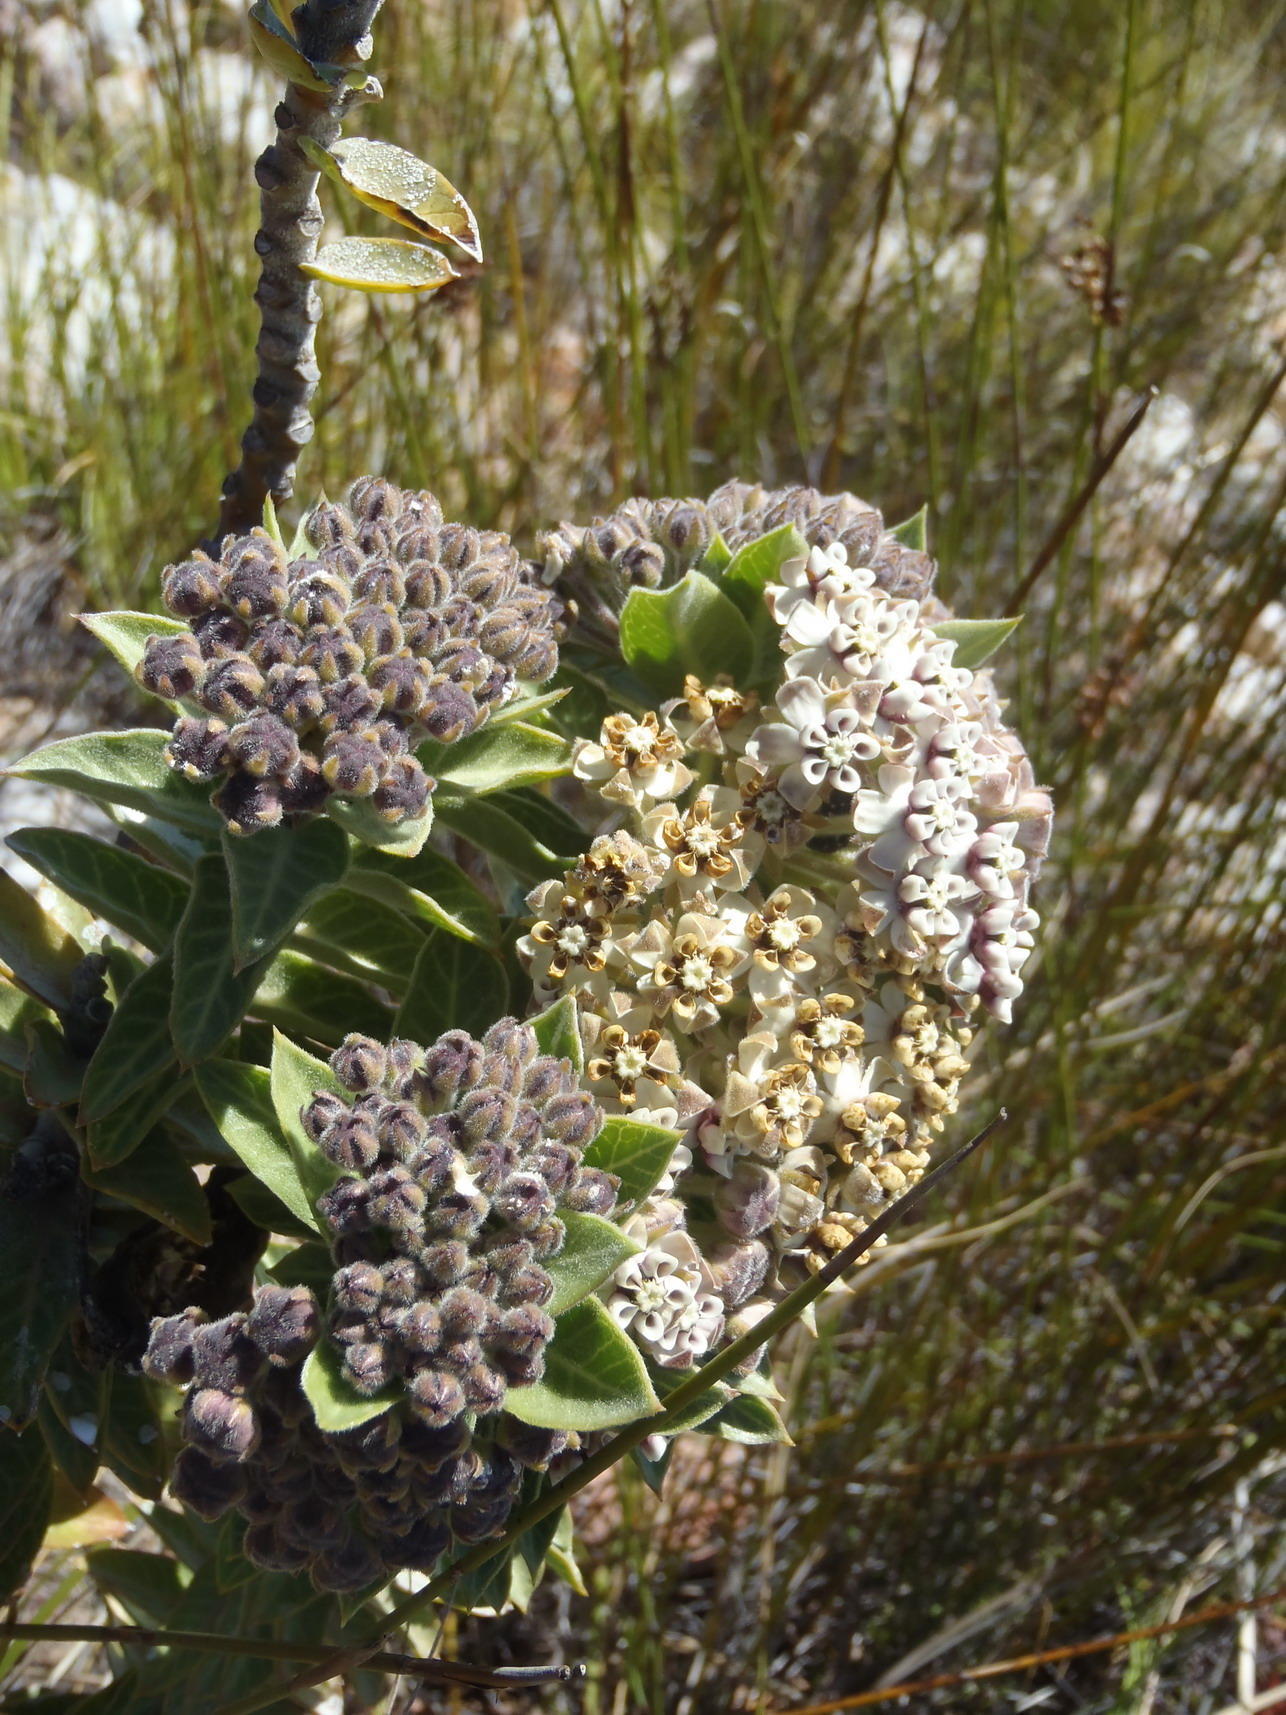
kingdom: Plantae
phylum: Tracheophyta
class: Magnoliopsida
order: Gentianales
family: Apocynaceae
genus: Gomphocarpus
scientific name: Gomphocarpus cancellatus
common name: Wild cotton
